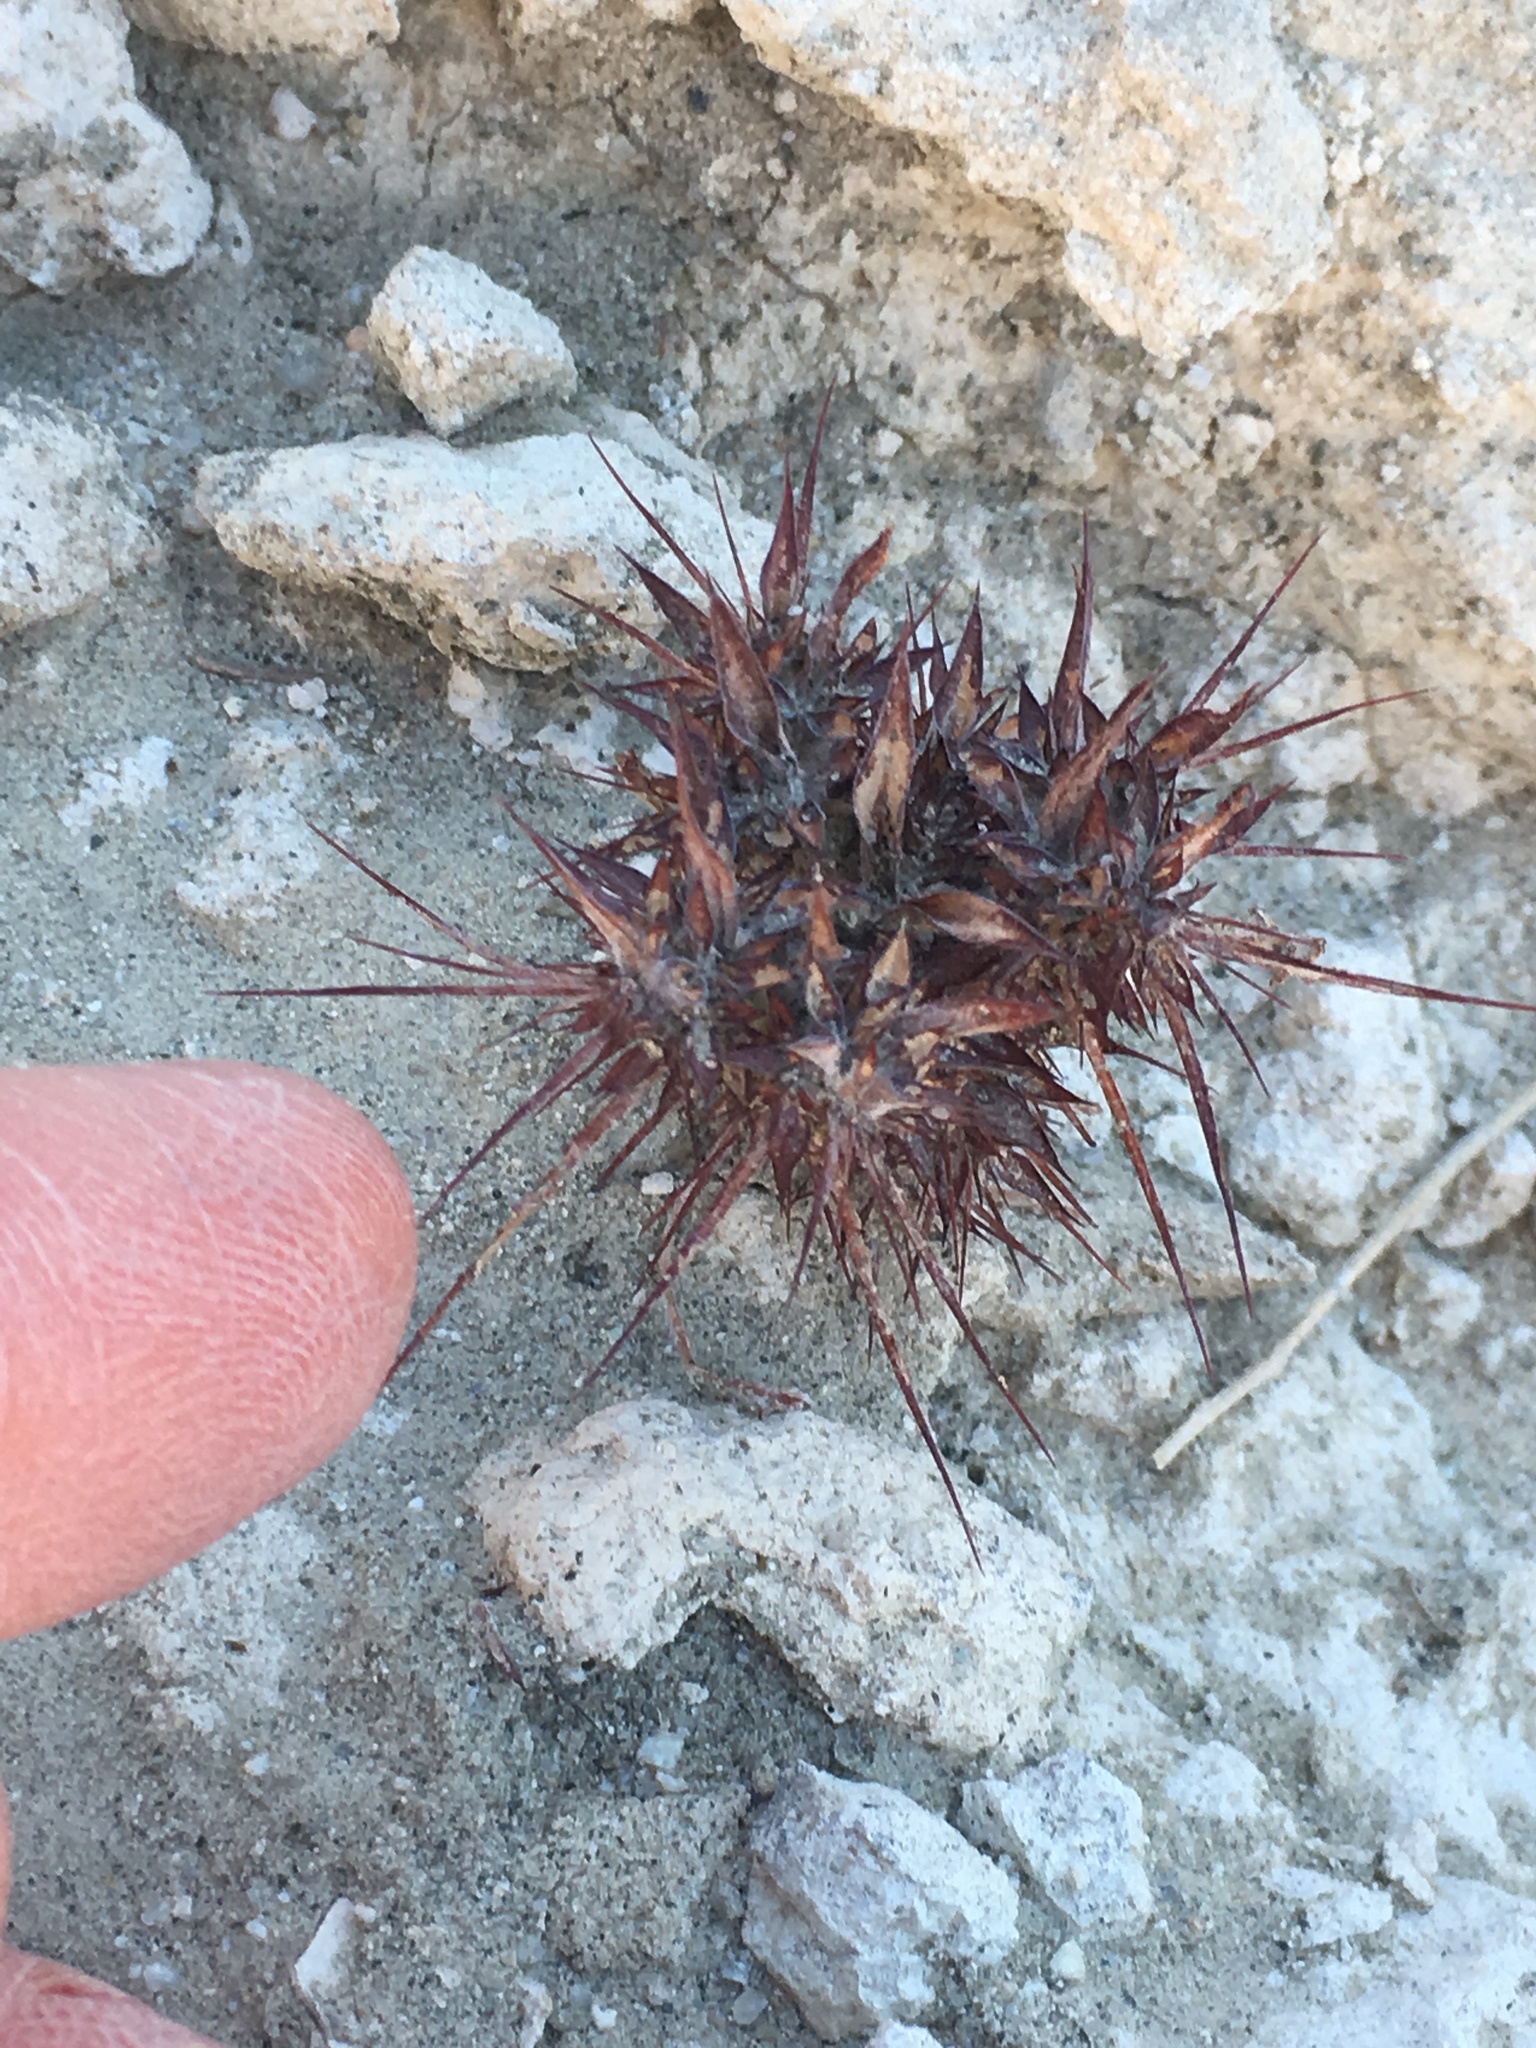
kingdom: Plantae
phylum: Tracheophyta
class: Magnoliopsida
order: Caryophyllales
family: Polygonaceae
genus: Chorizanthe
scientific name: Chorizanthe rigida
